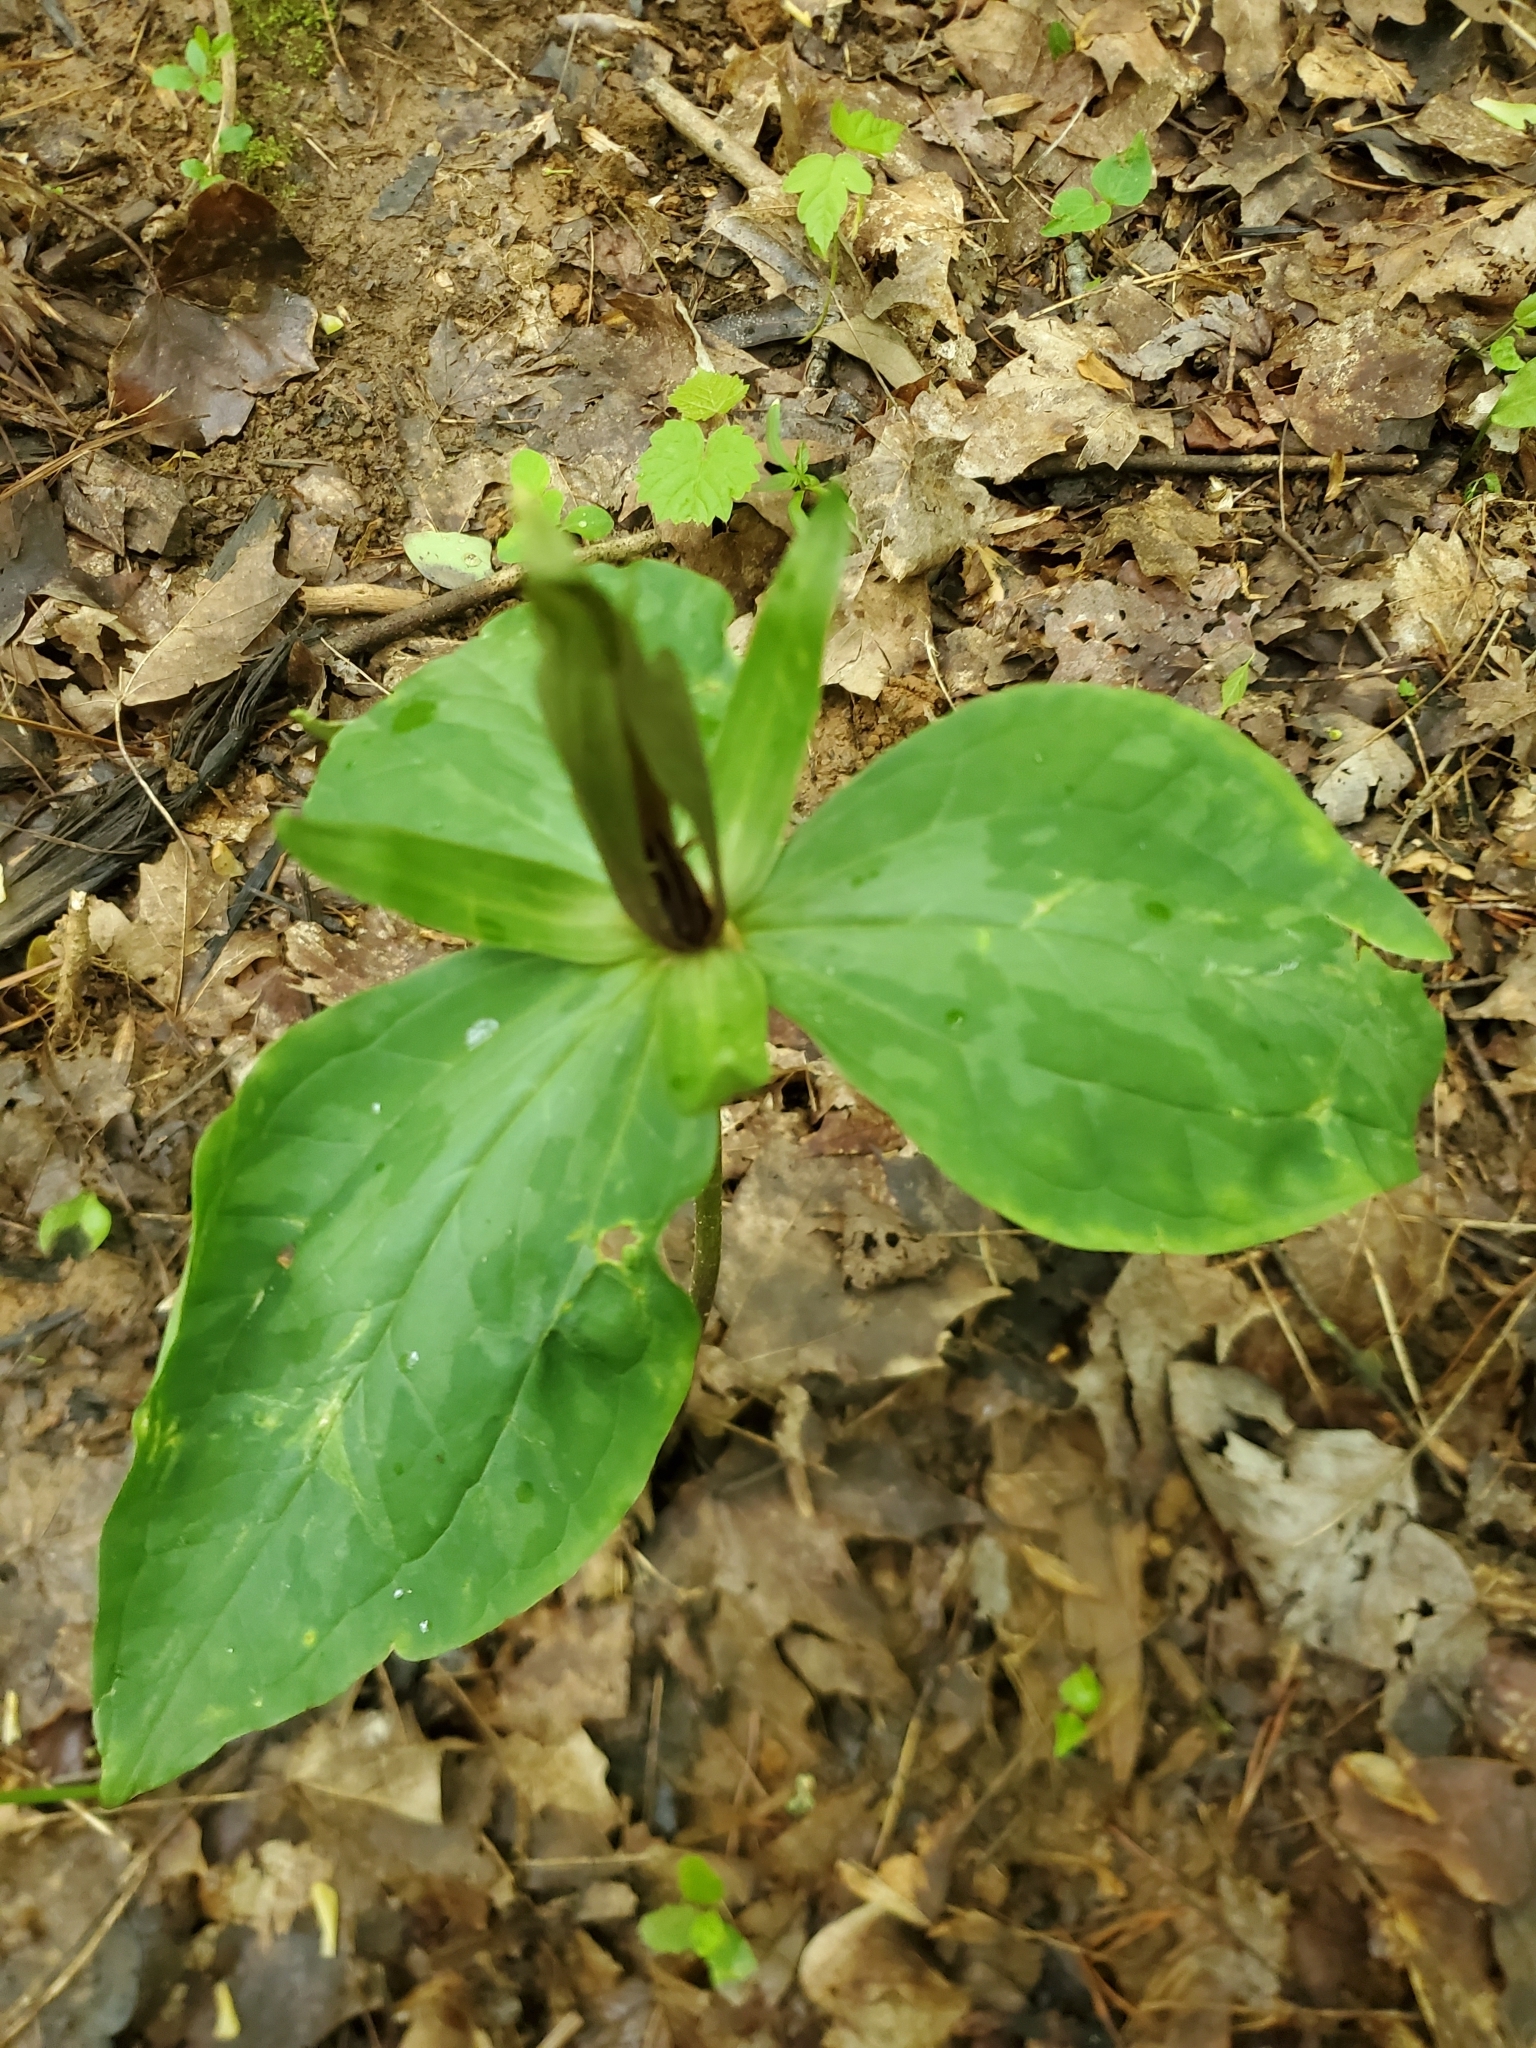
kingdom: Plantae
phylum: Tracheophyta
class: Liliopsida
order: Liliales
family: Melanthiaceae
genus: Trillium
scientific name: Trillium cuneatum
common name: Cuneate trillium
